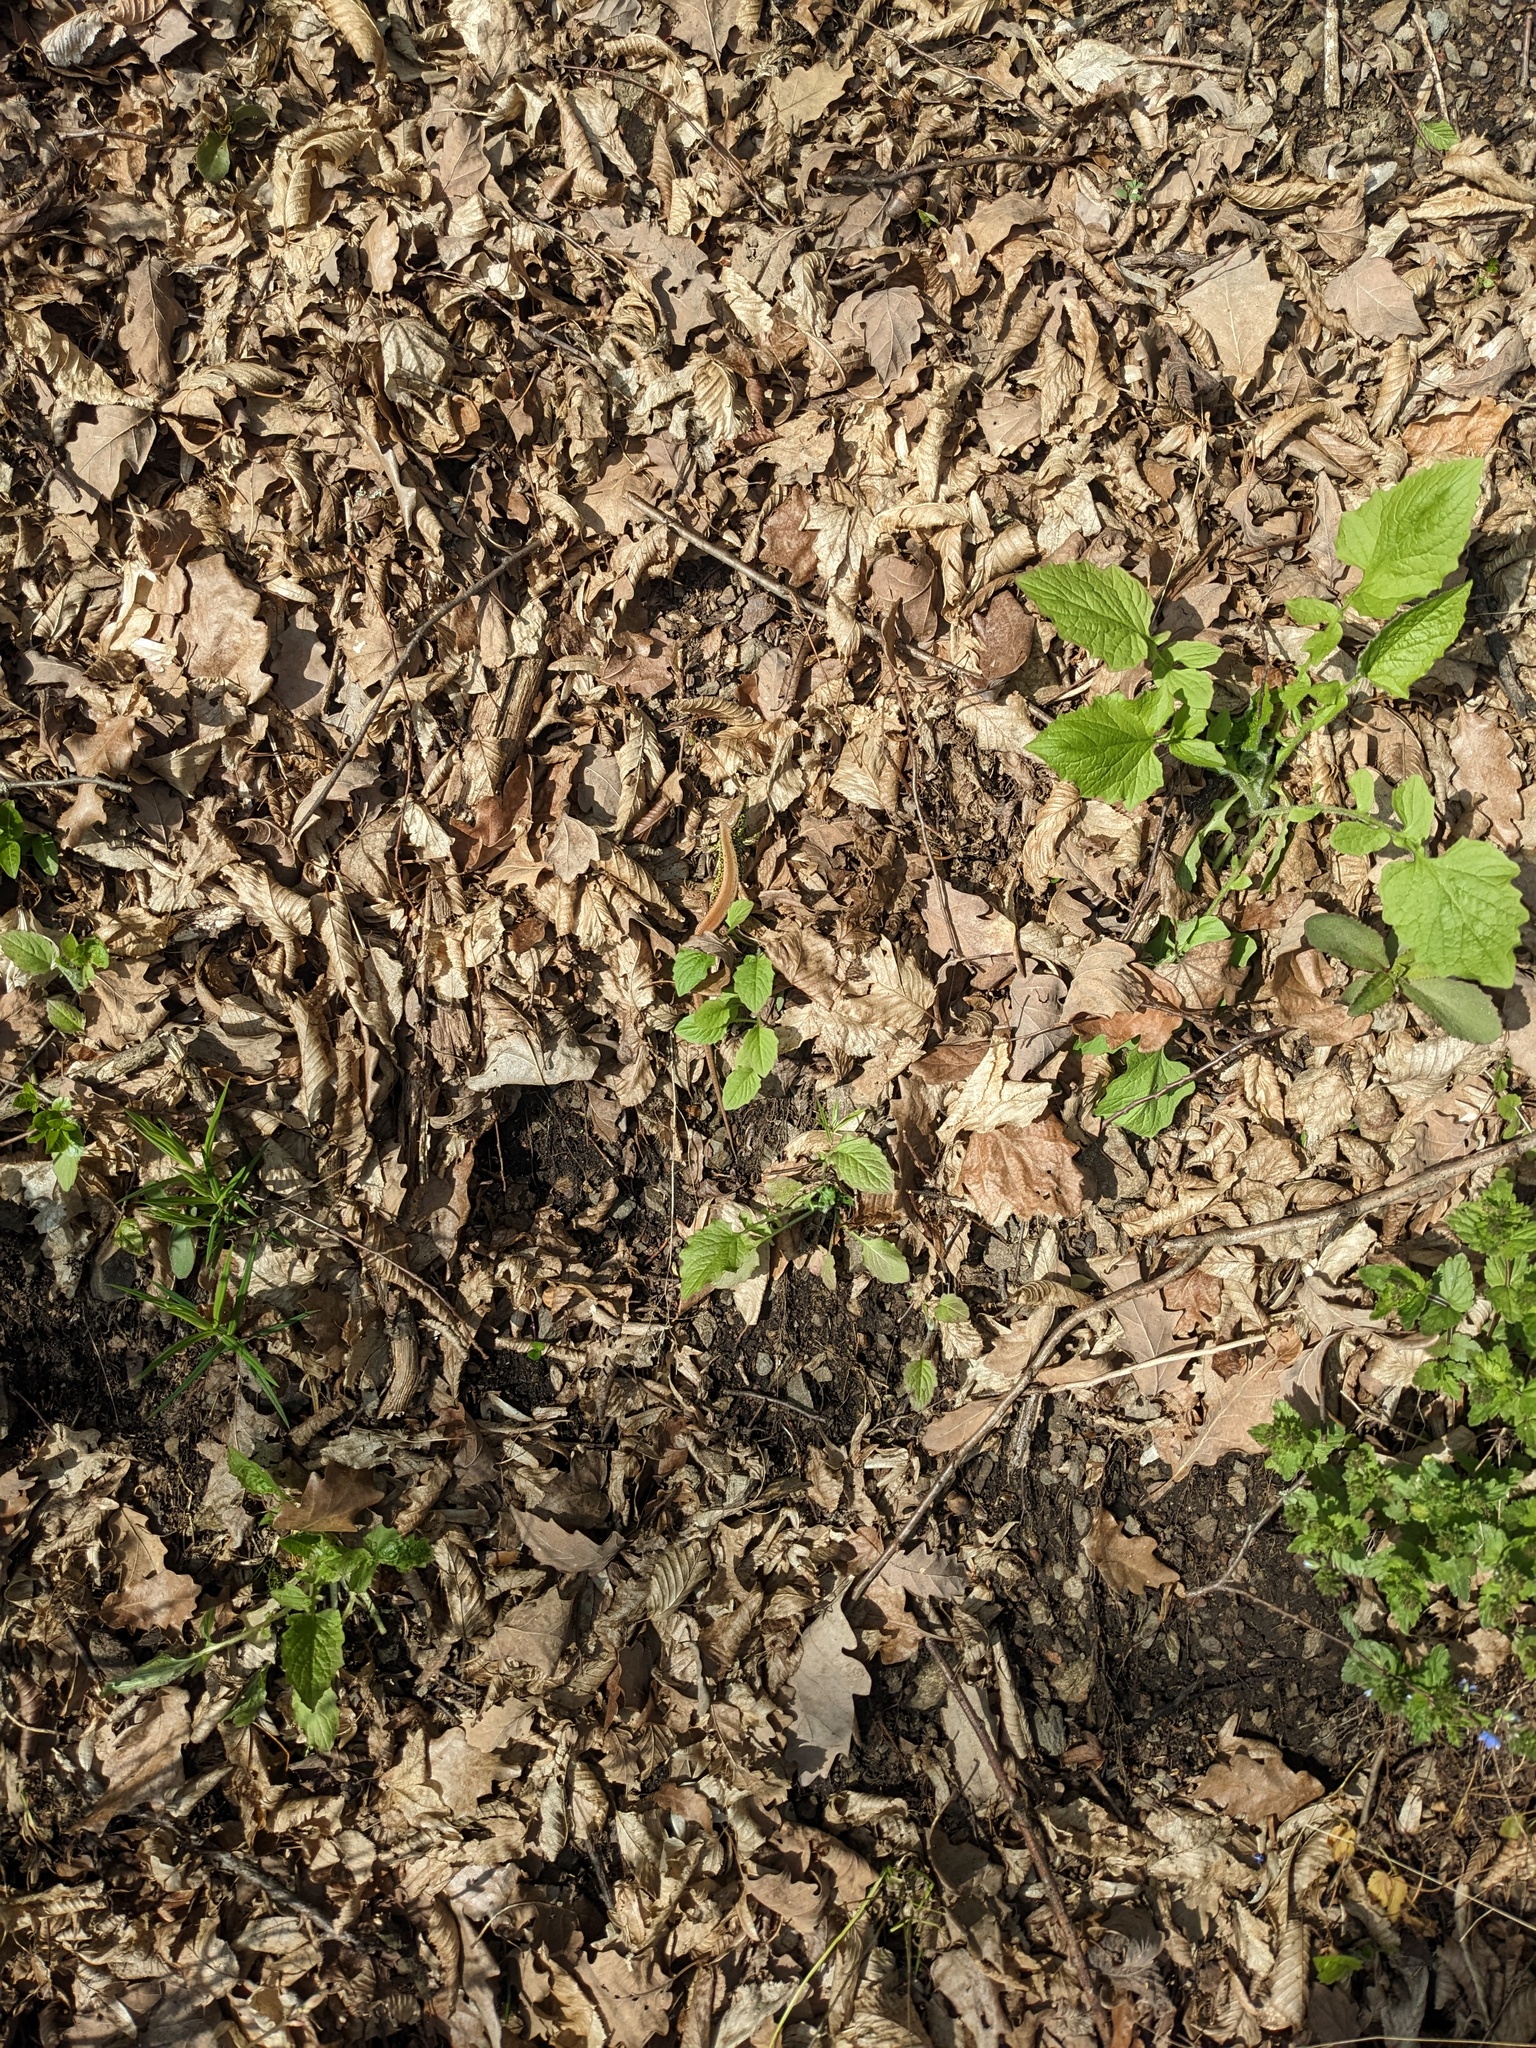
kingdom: Animalia
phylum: Chordata
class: Squamata
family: Lacertidae
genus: Lacerta
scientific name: Lacerta agilis
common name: Sand lizard
